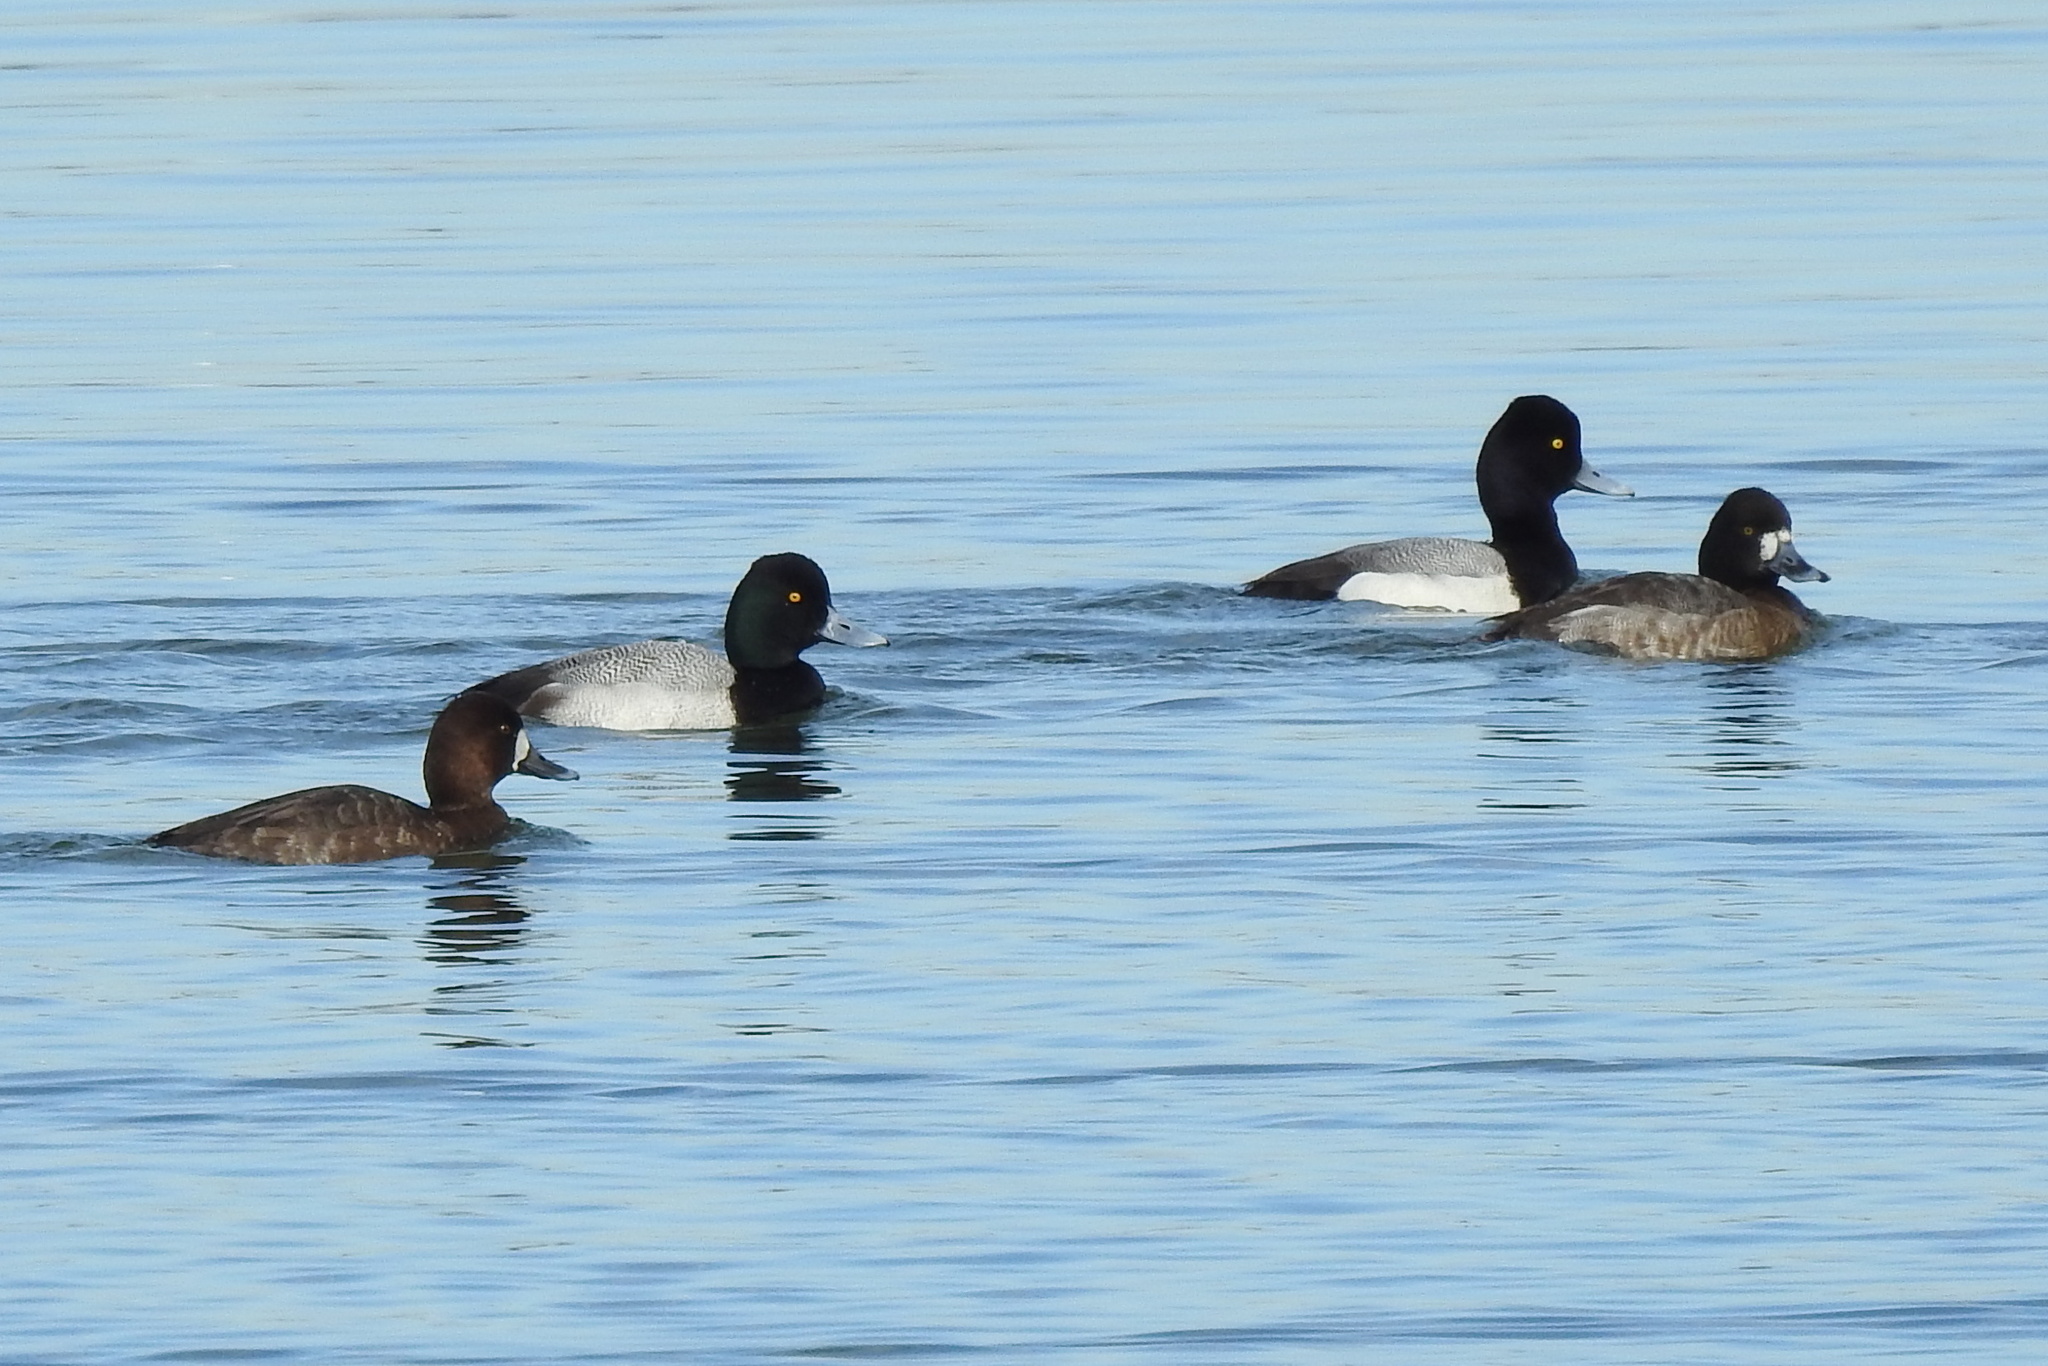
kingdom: Animalia
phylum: Chordata
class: Aves
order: Anseriformes
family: Anatidae
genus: Aythya
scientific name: Aythya affinis
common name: Lesser scaup
